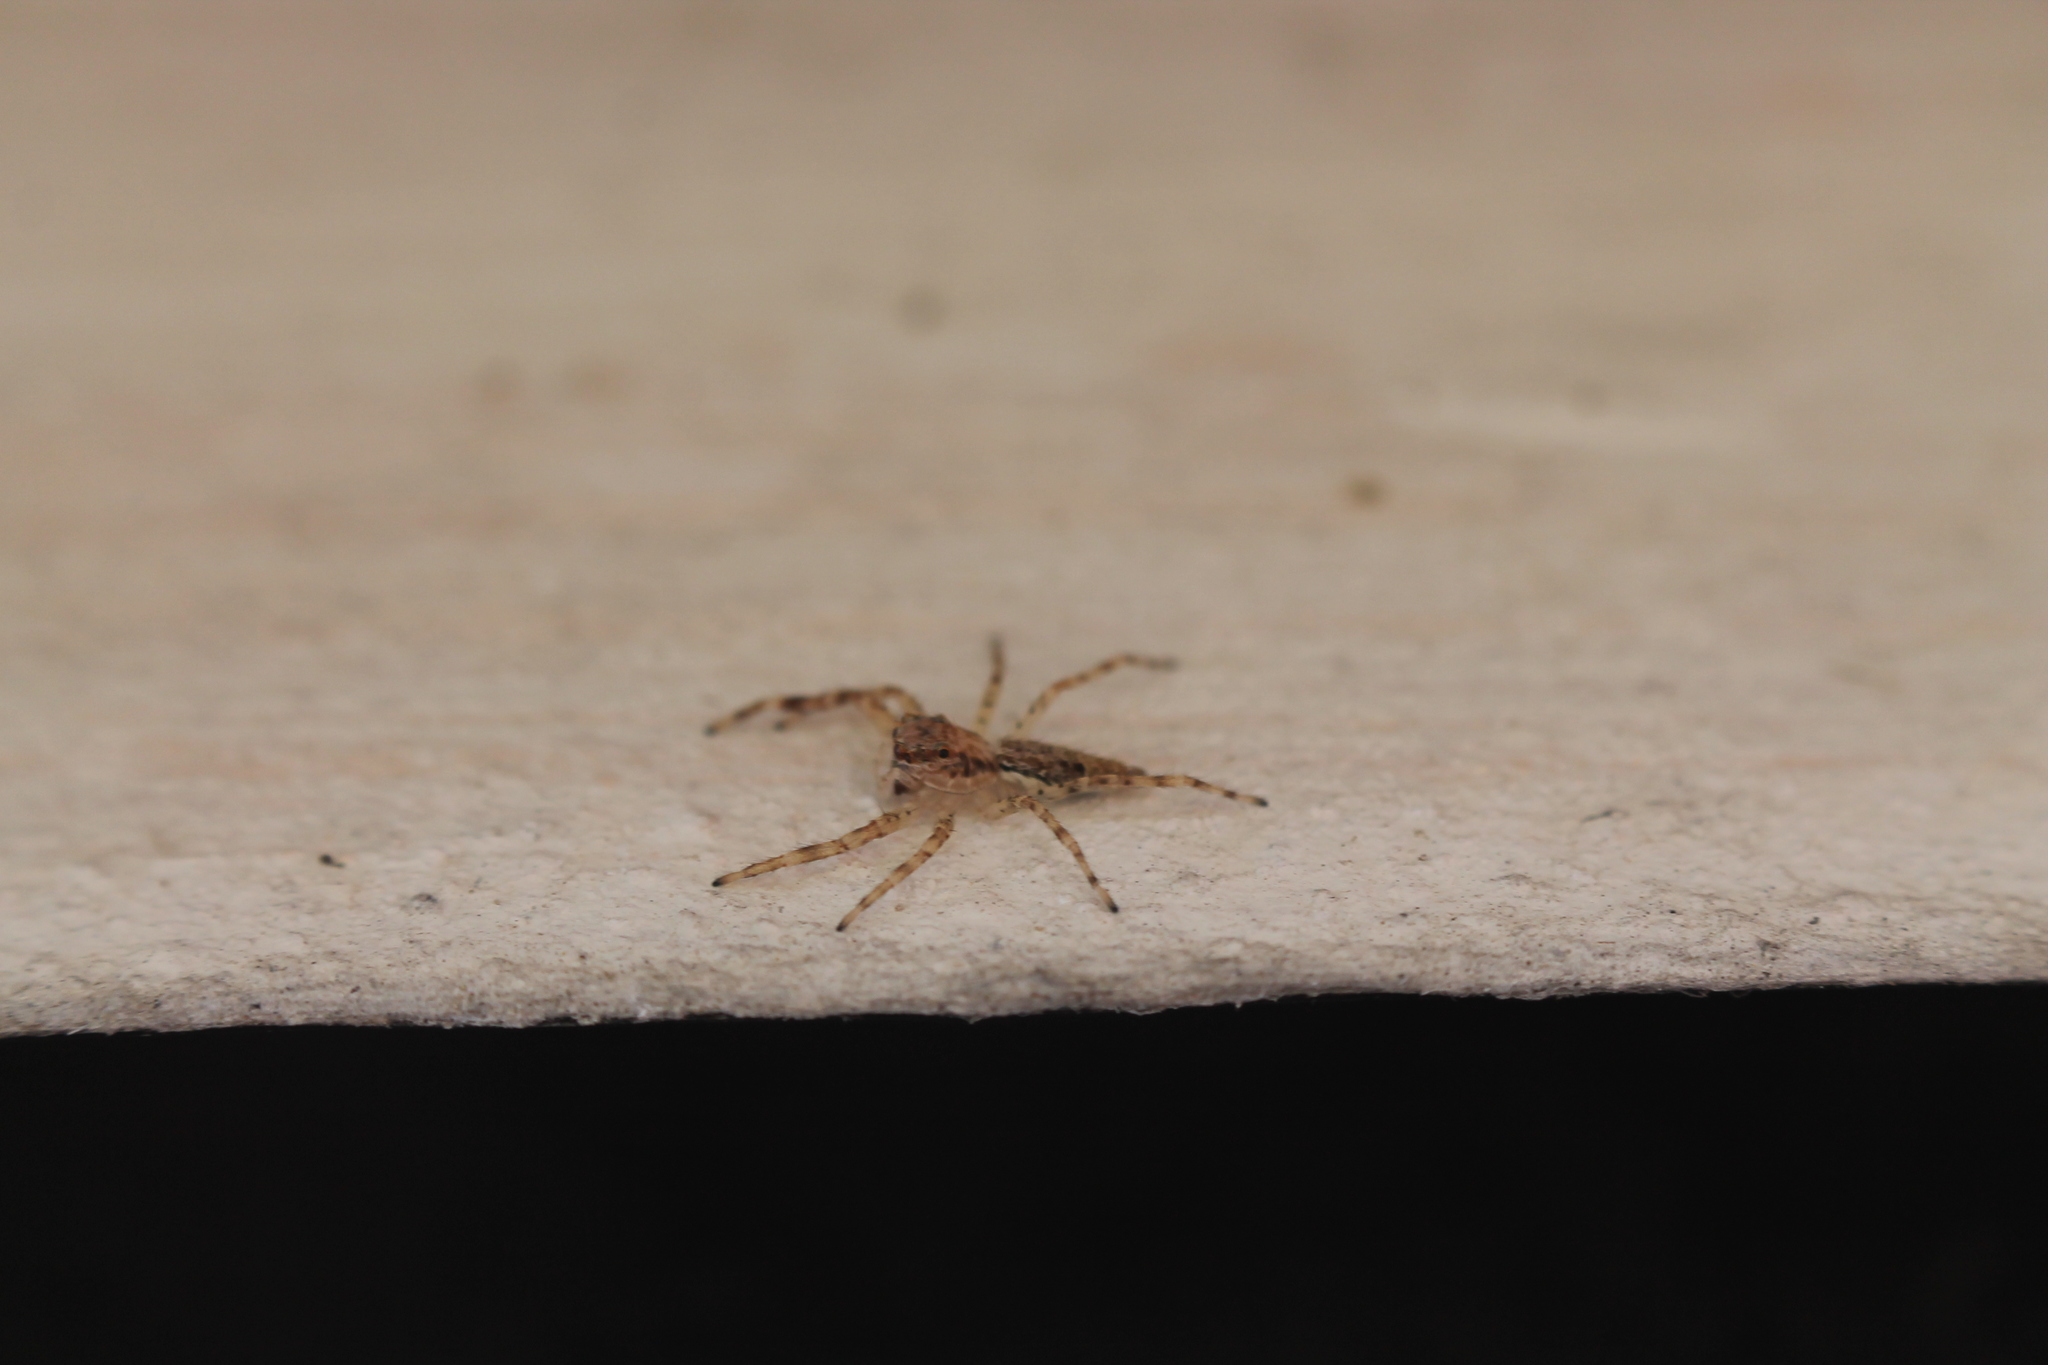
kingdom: Animalia
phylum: Arthropoda
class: Arachnida
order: Araneae
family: Salticidae
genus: Helpis
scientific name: Helpis minitabunda
